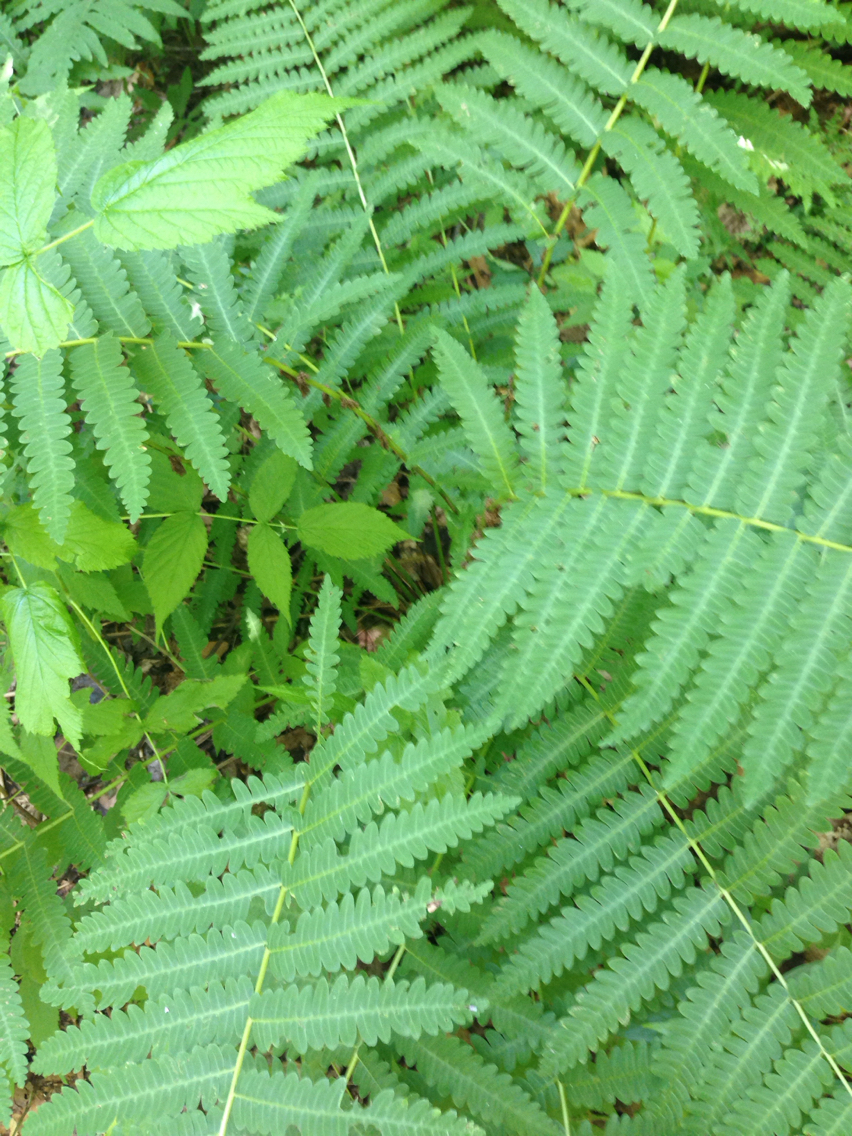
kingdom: Plantae
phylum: Tracheophyta
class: Polypodiopsida
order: Osmundales
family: Osmundaceae
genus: Claytosmunda
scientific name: Claytosmunda claytoniana
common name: Clayton's fern
